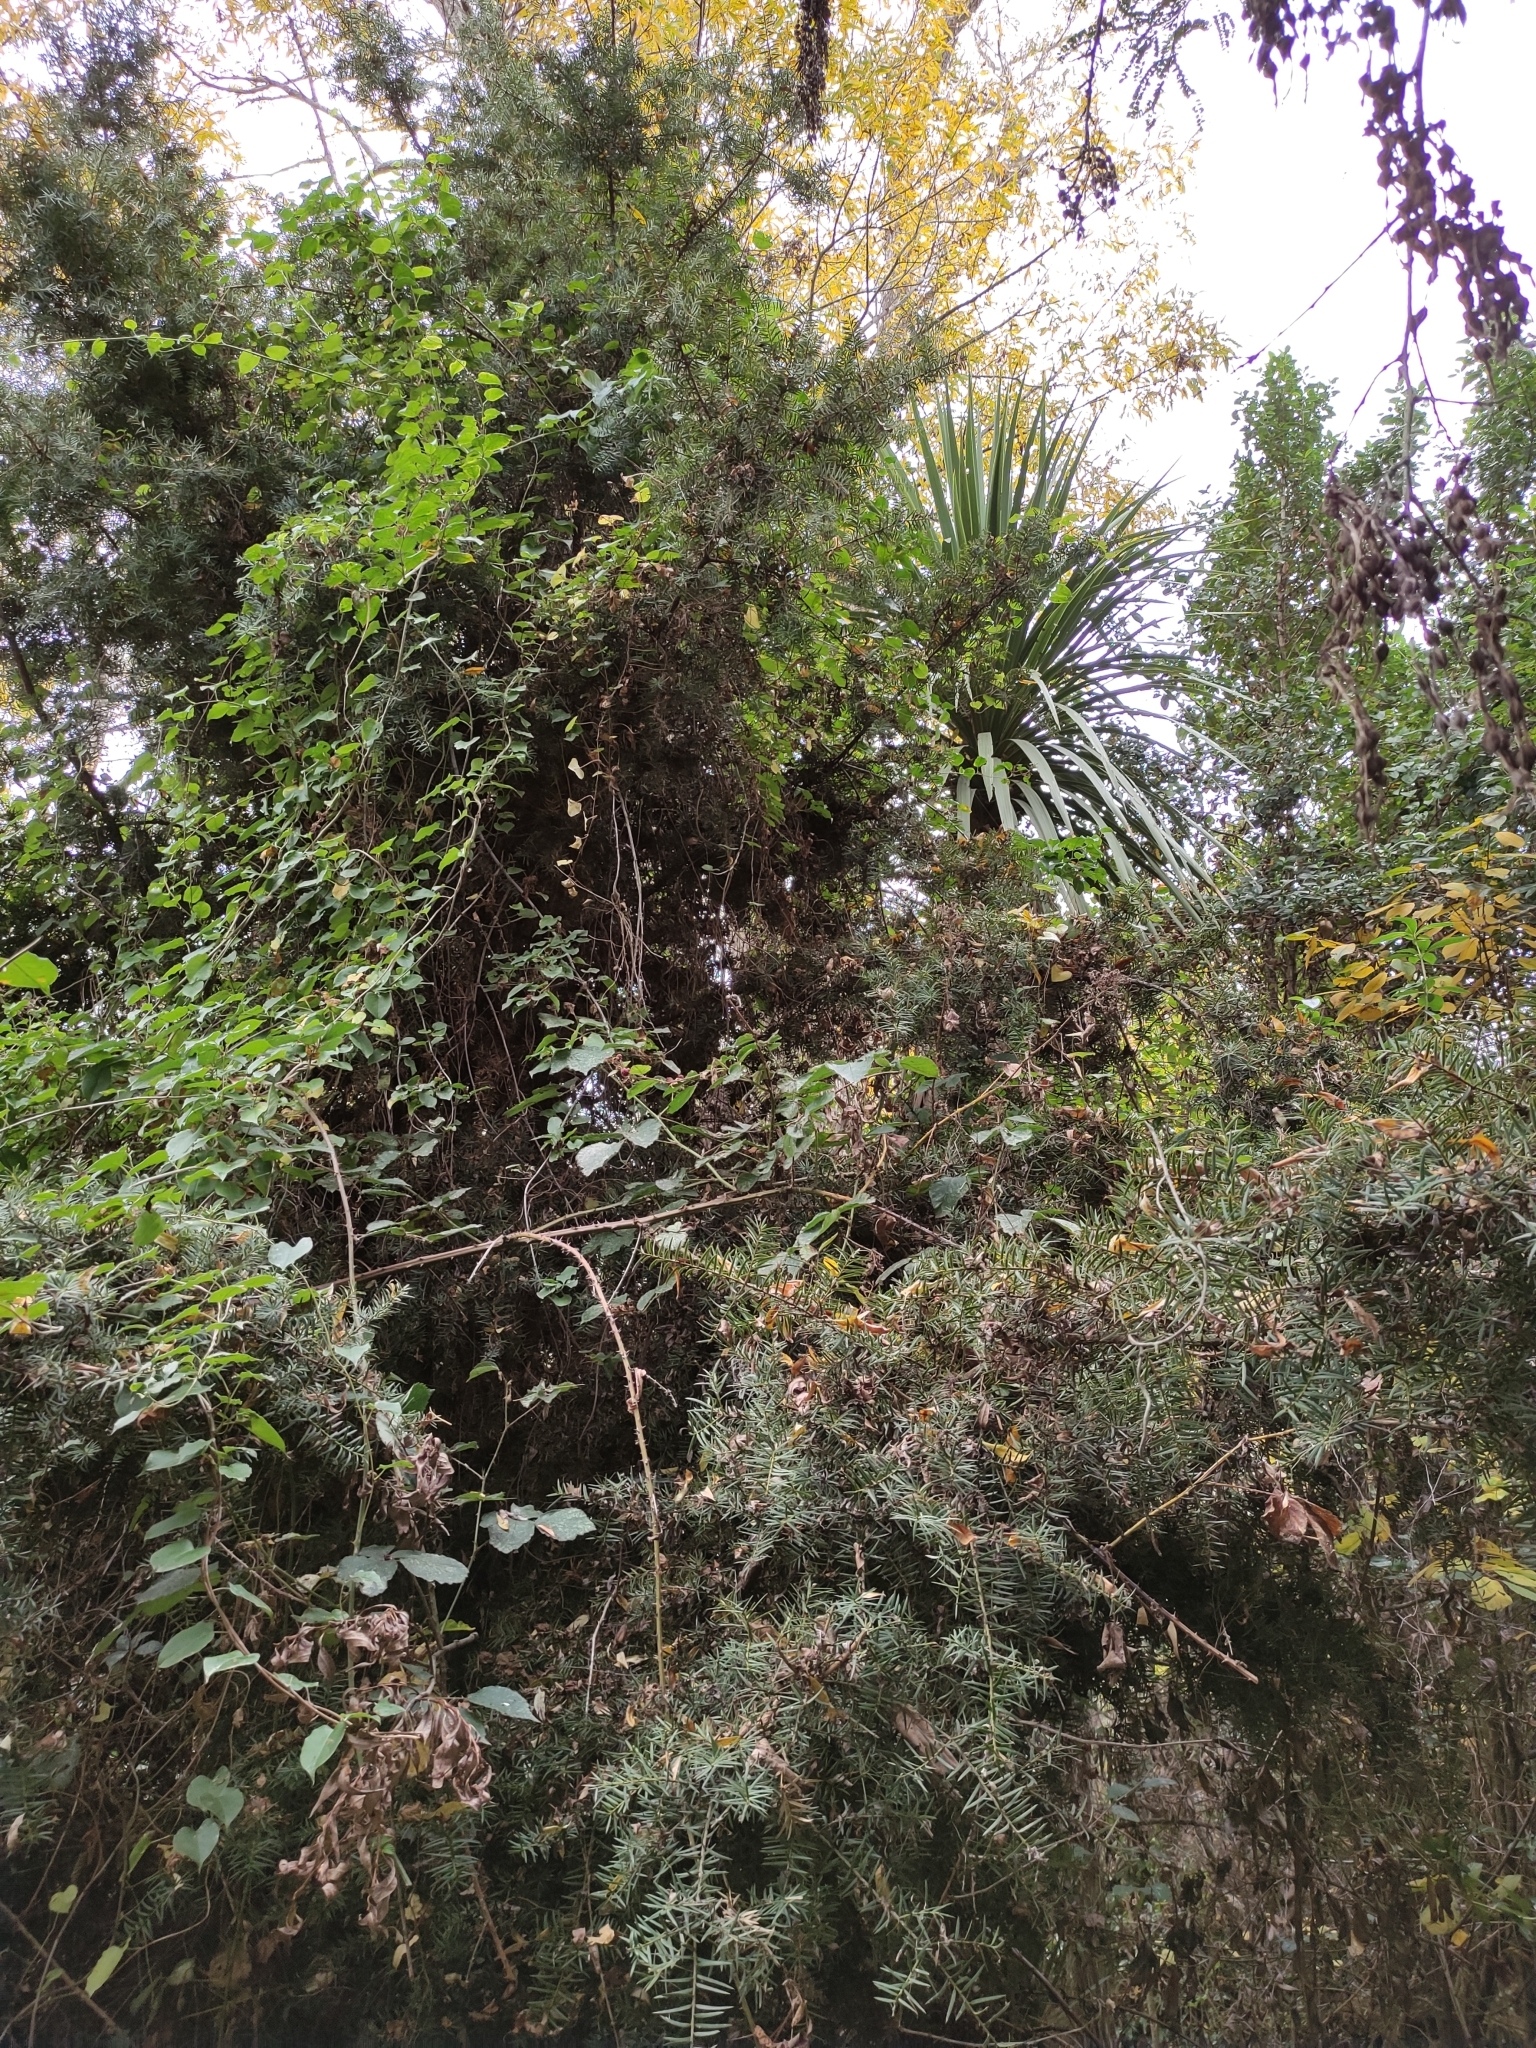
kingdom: Plantae
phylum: Tracheophyta
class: Pinopsida
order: Pinales
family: Podocarpaceae
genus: Podocarpus
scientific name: Podocarpus totara
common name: Totara
